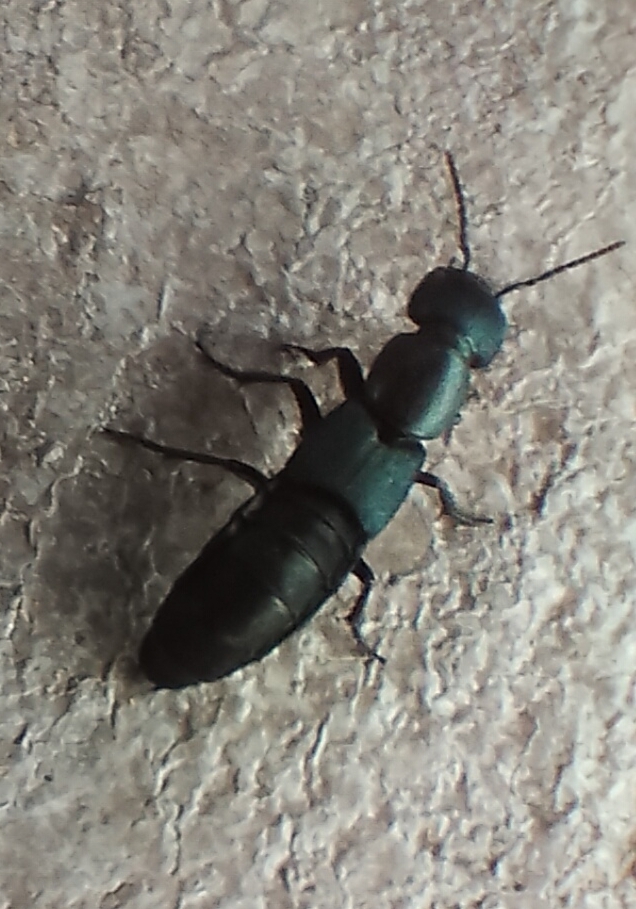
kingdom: Animalia
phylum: Arthropoda
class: Insecta
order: Coleoptera
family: Staphylinidae
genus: Ocypus
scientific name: Ocypus ophthalmicus
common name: Blue rove-beetle
